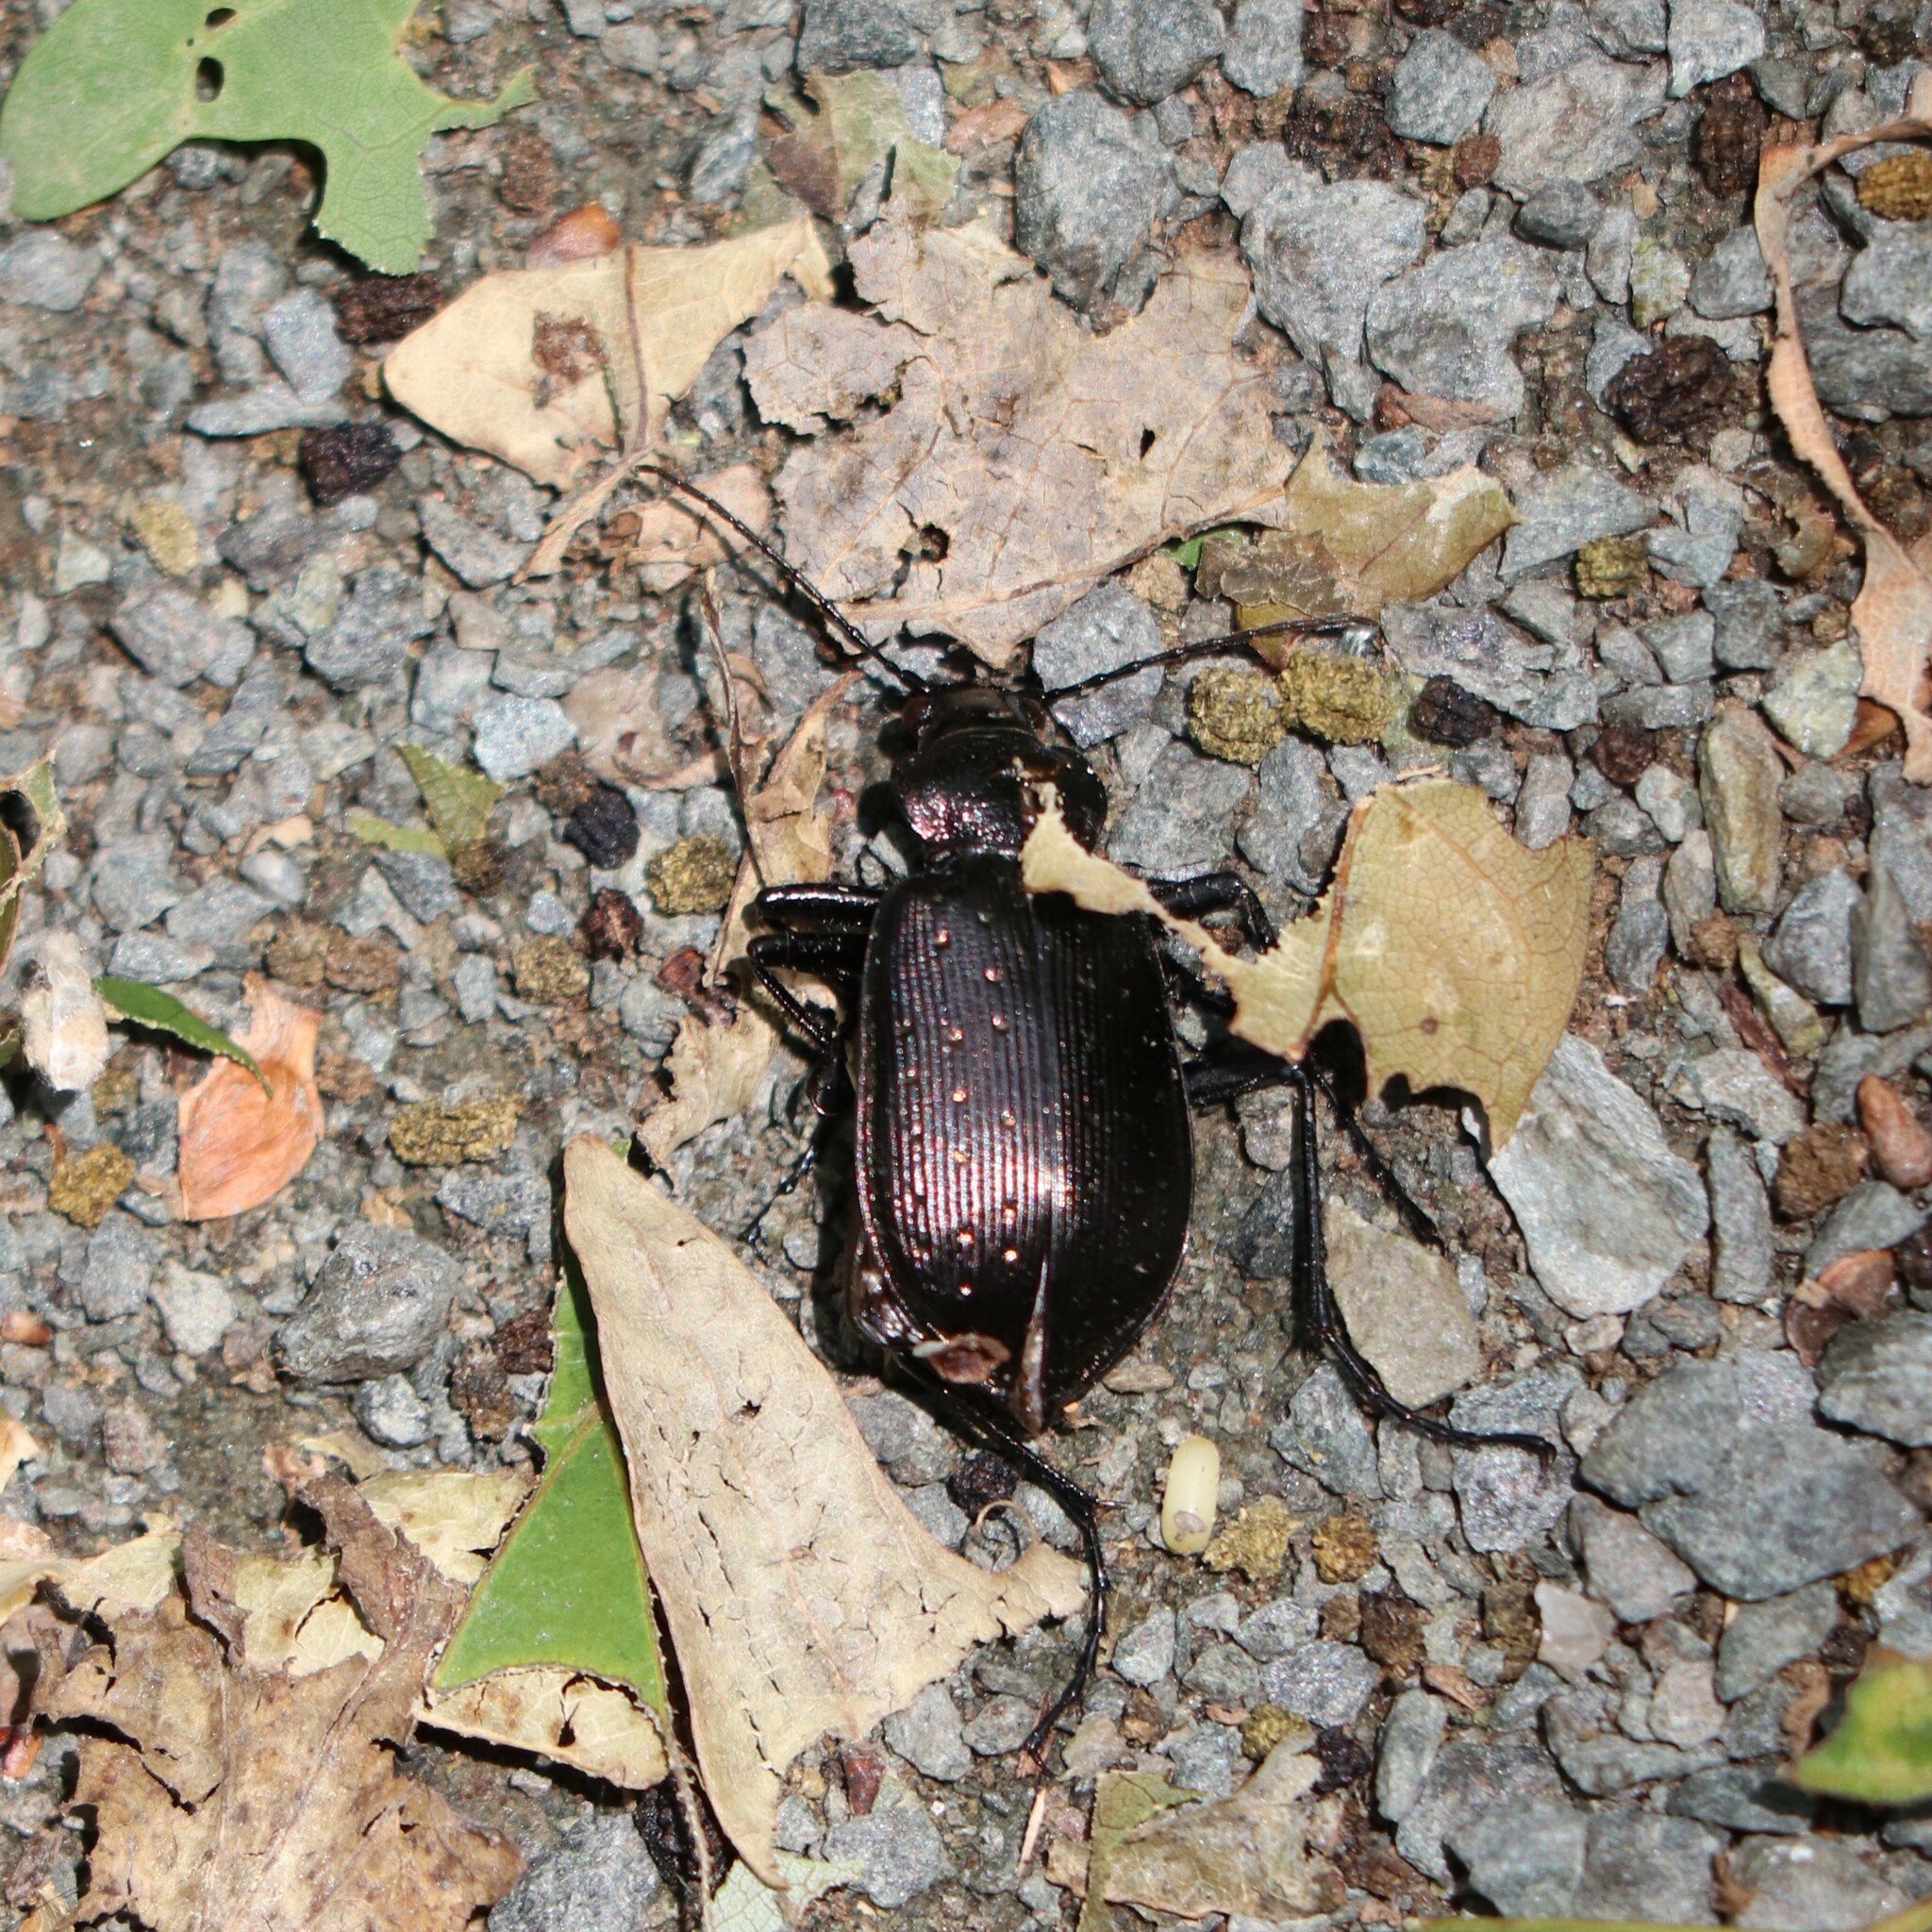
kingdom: Animalia
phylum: Arthropoda
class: Insecta
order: Coleoptera
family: Carabidae
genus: Calosoma
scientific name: Calosoma frigidum
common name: Cold-country caterpillar hunter
